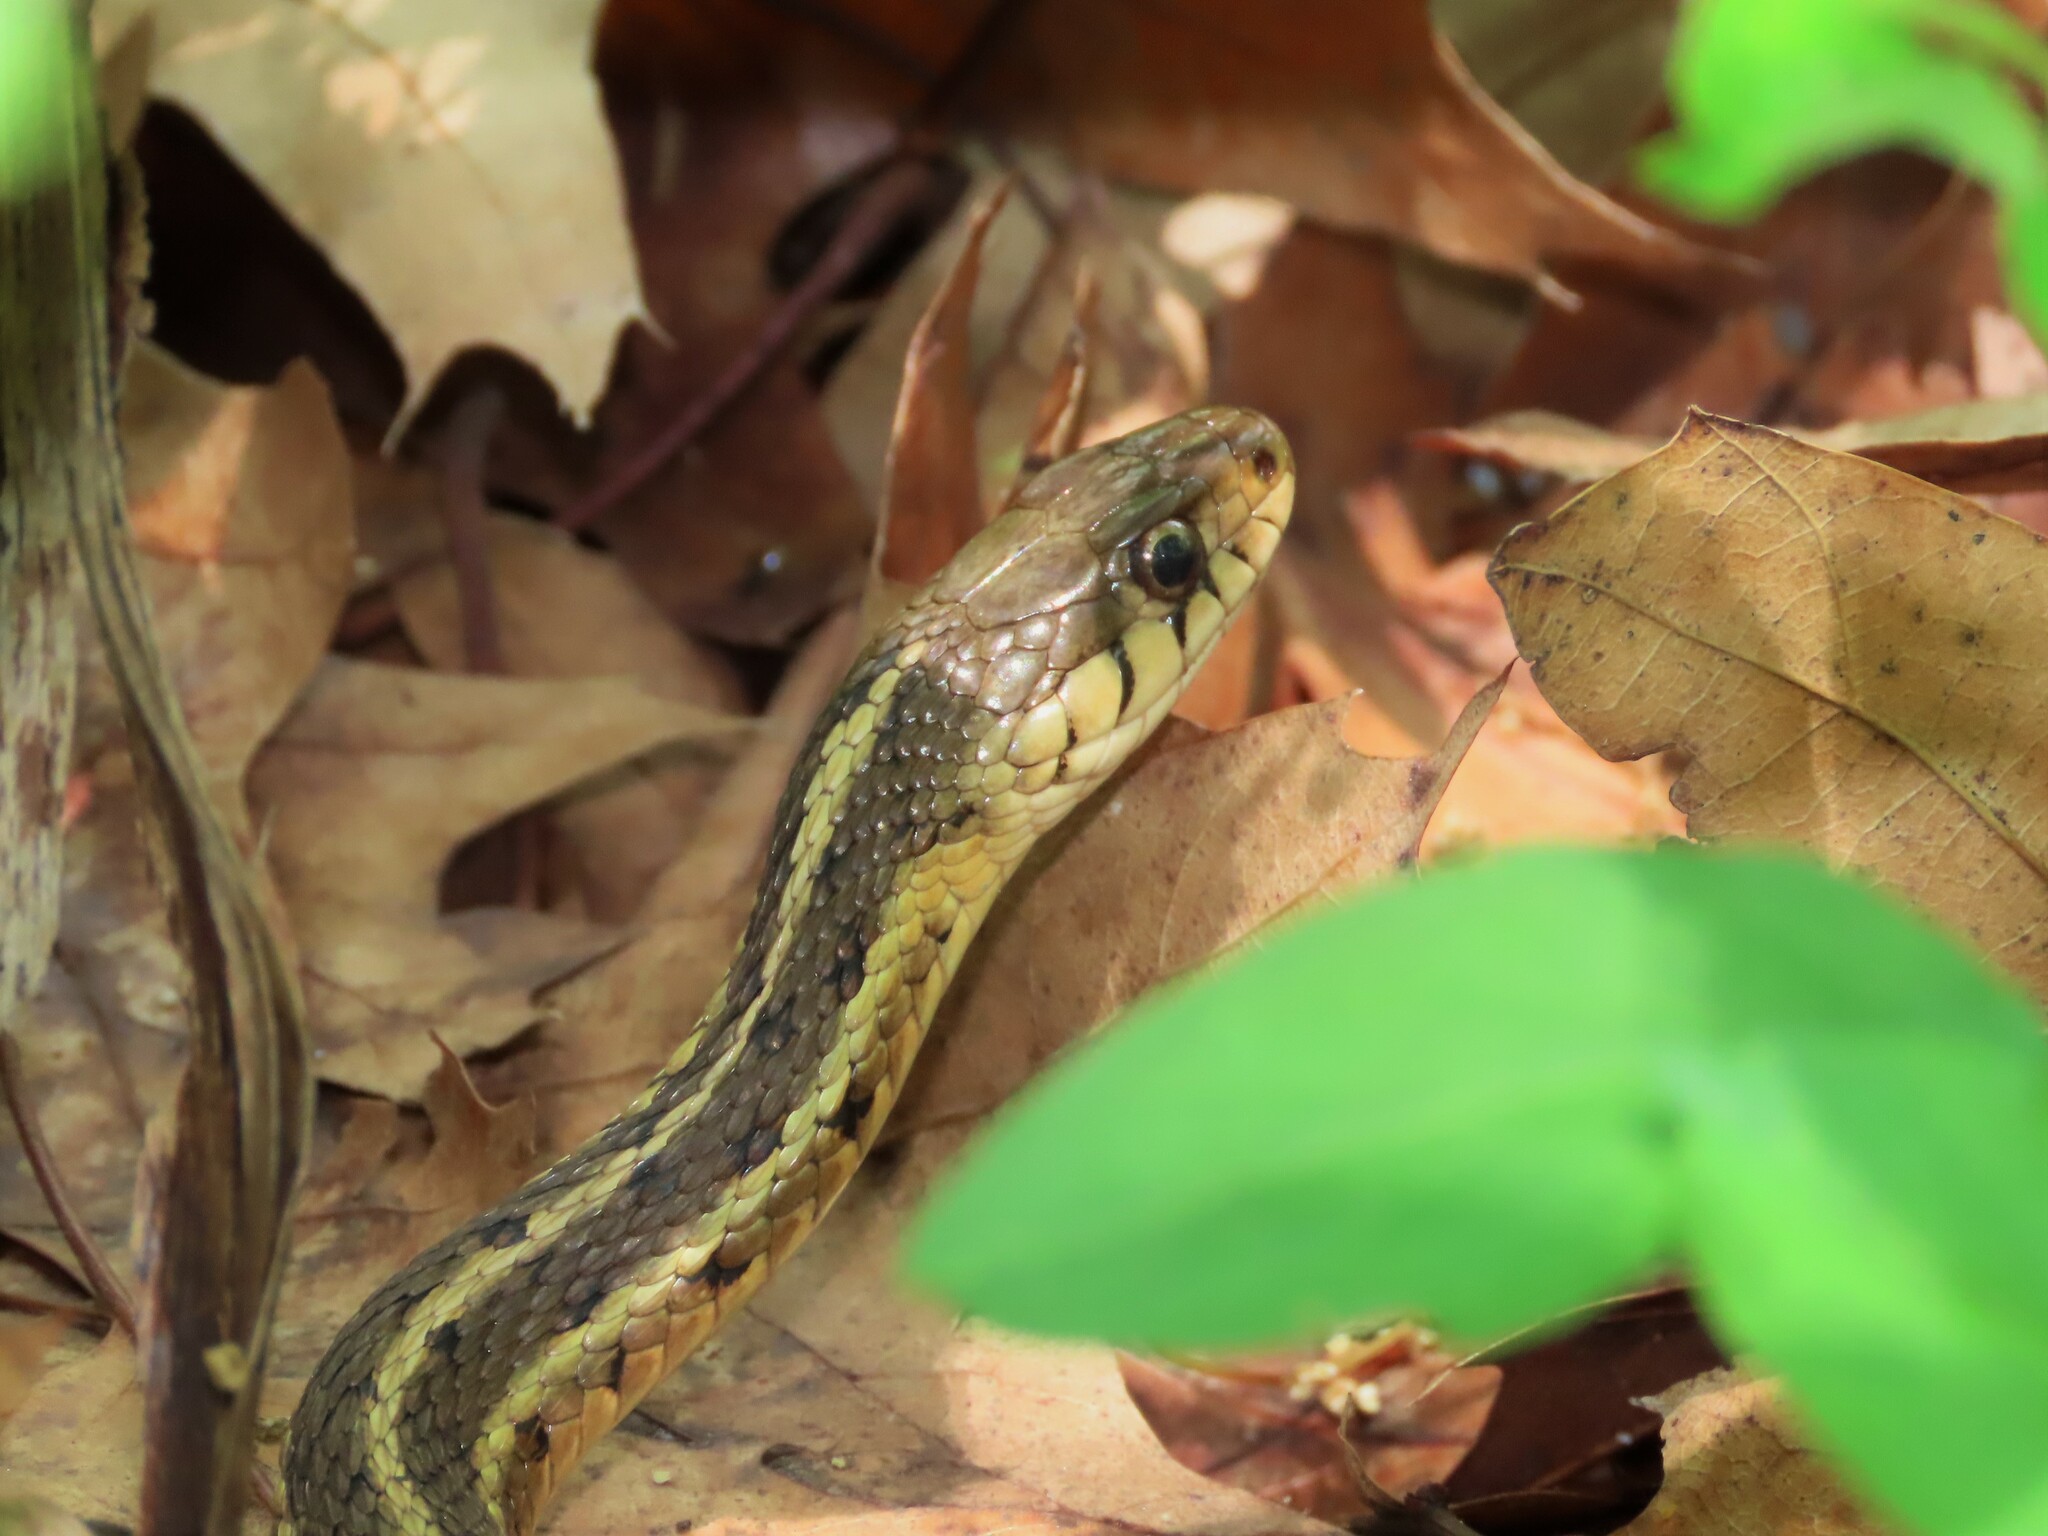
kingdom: Animalia
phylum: Chordata
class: Squamata
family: Colubridae
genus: Thamnophis
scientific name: Thamnophis sirtalis
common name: Common garter snake
